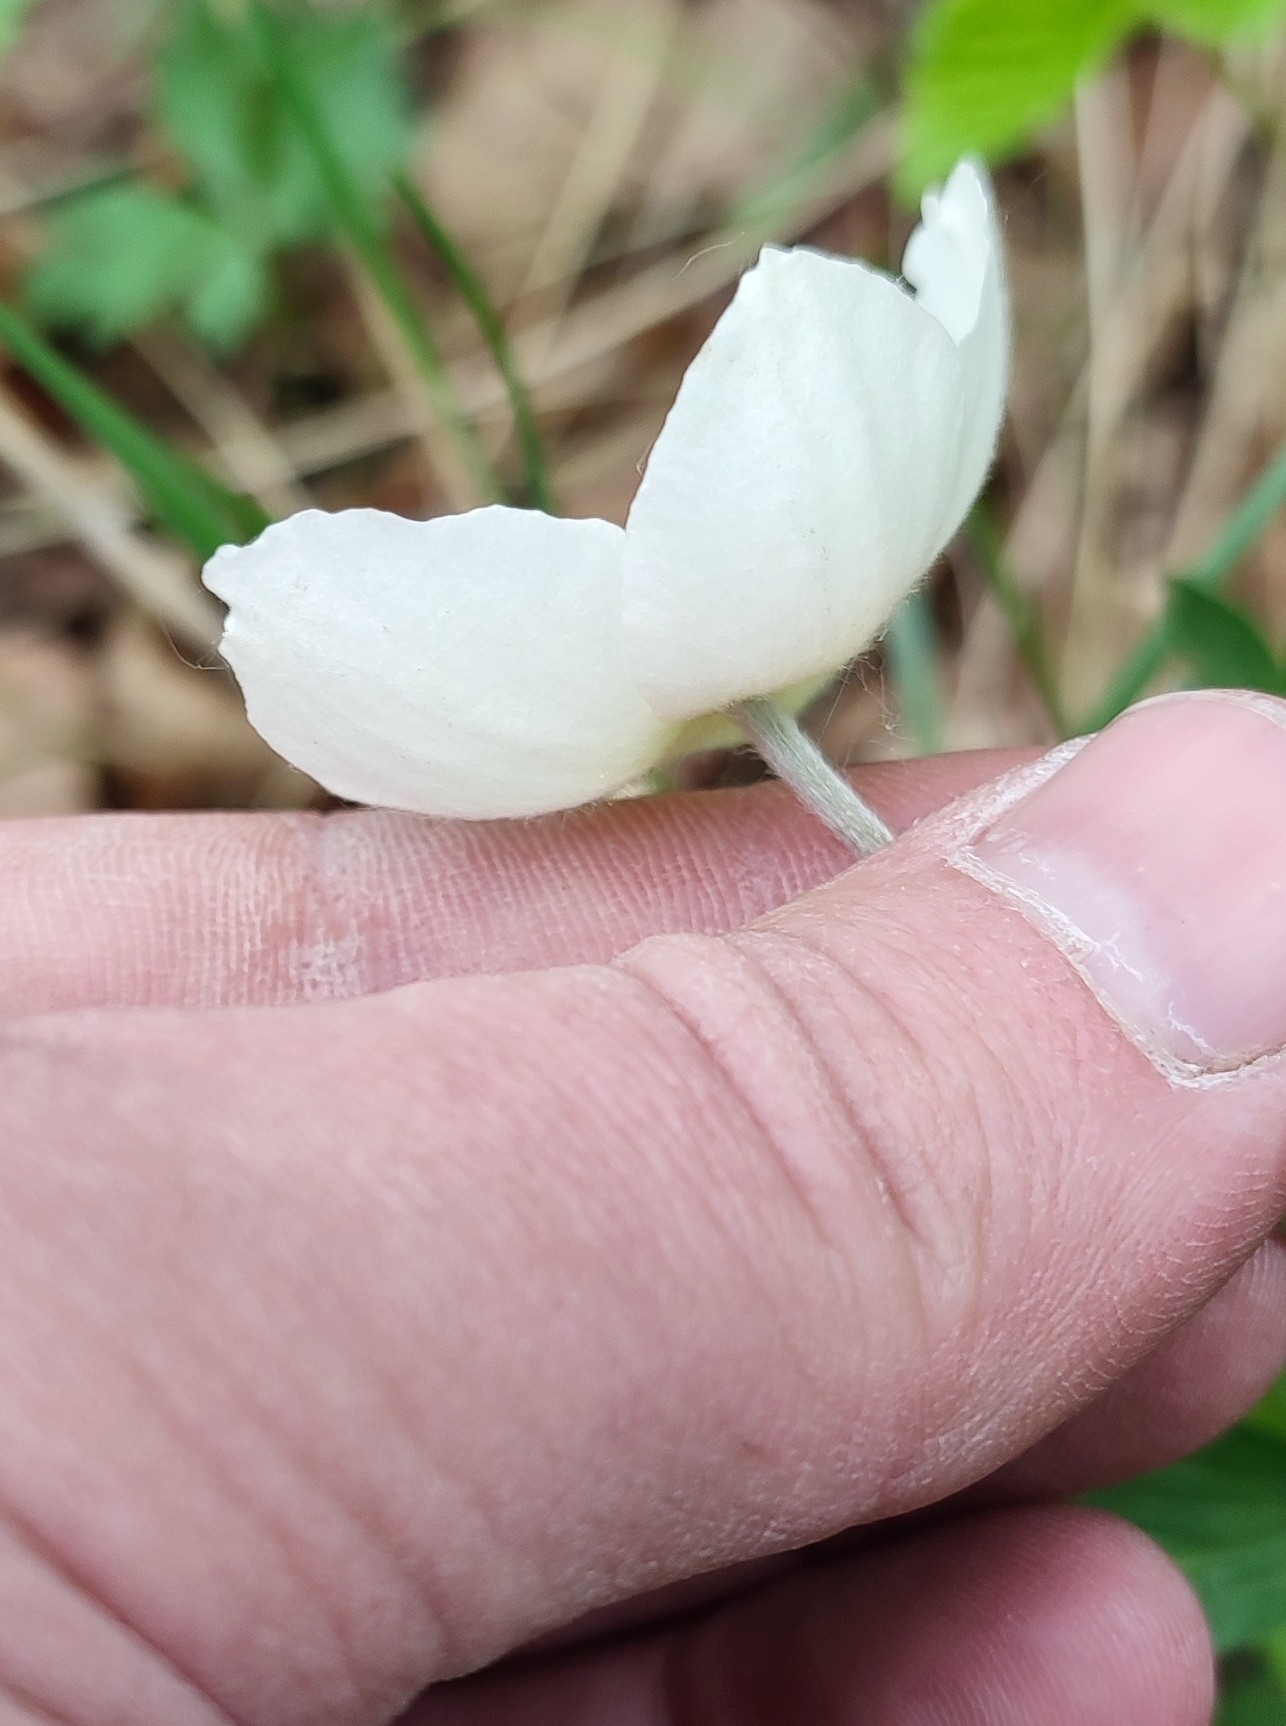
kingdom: Plantae
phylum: Tracheophyta
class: Magnoliopsida
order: Ranunculales
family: Ranunculaceae
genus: Anemone
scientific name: Anemone sylvestris
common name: Snowdrop anemone
